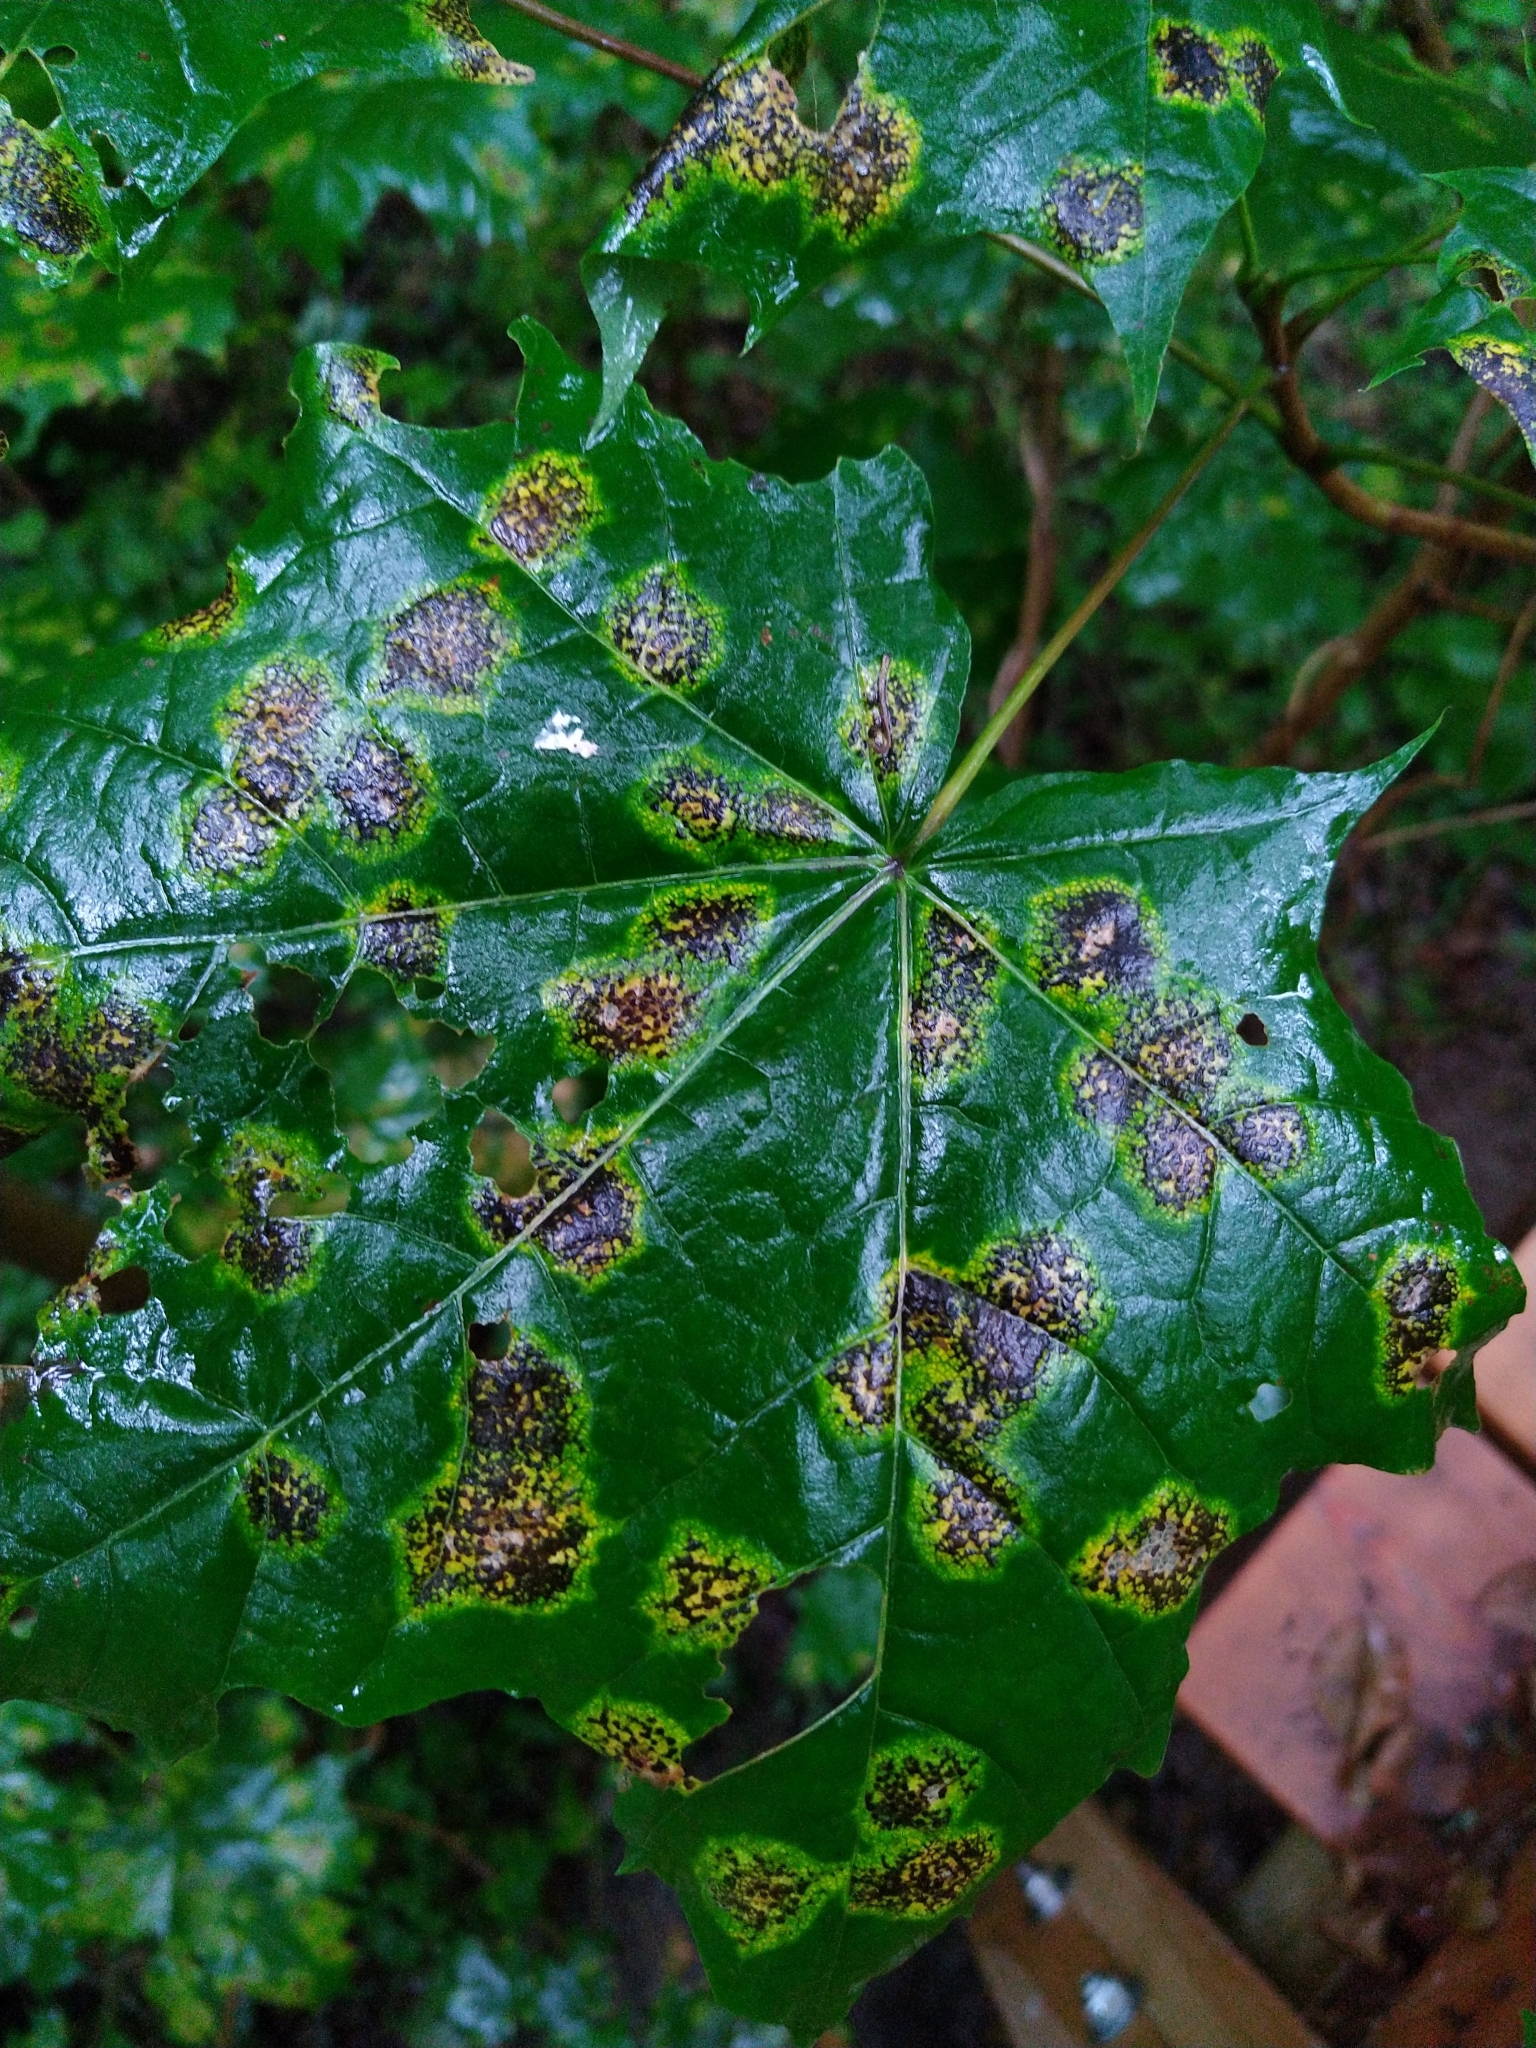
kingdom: Fungi
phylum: Ascomycota
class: Leotiomycetes
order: Rhytismatales
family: Rhytismataceae
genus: Rhytisma
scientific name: Rhytisma acerinum
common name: European tar spot
